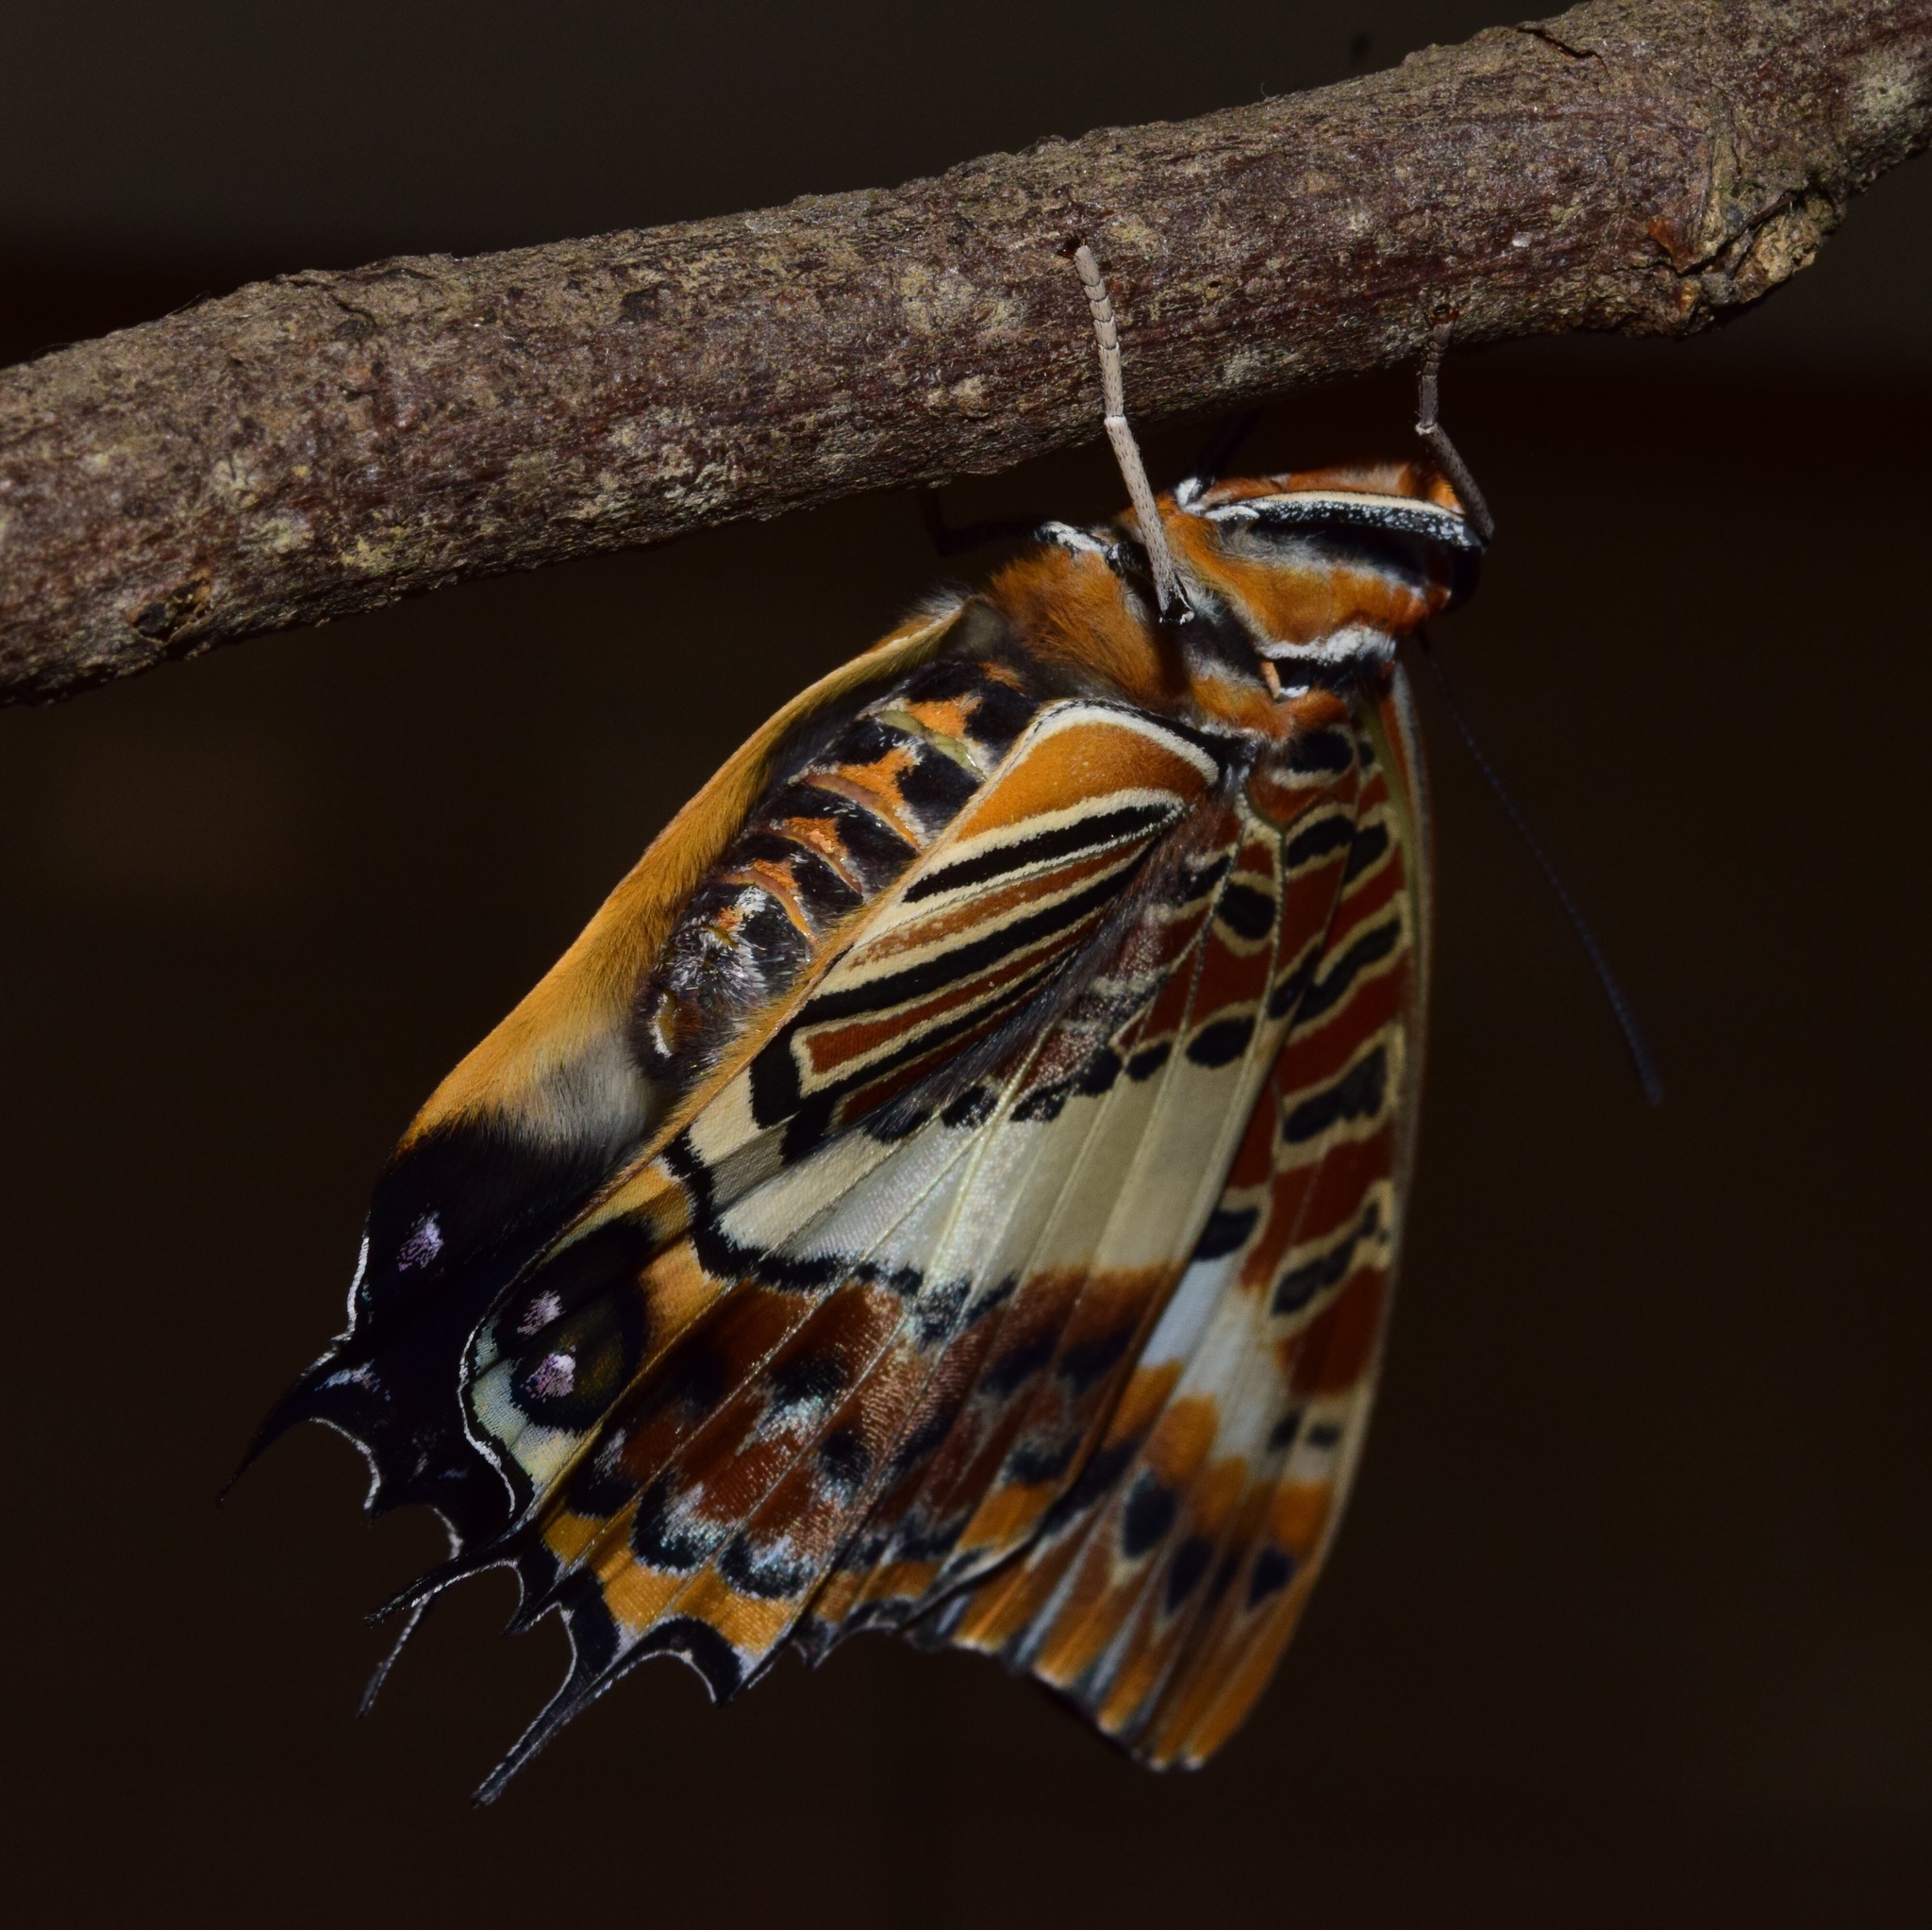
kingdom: Animalia
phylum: Arthropoda
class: Insecta
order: Lepidoptera
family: Nymphalidae
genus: Charaxes
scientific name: Charaxes brutus
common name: White-barred charaxes
